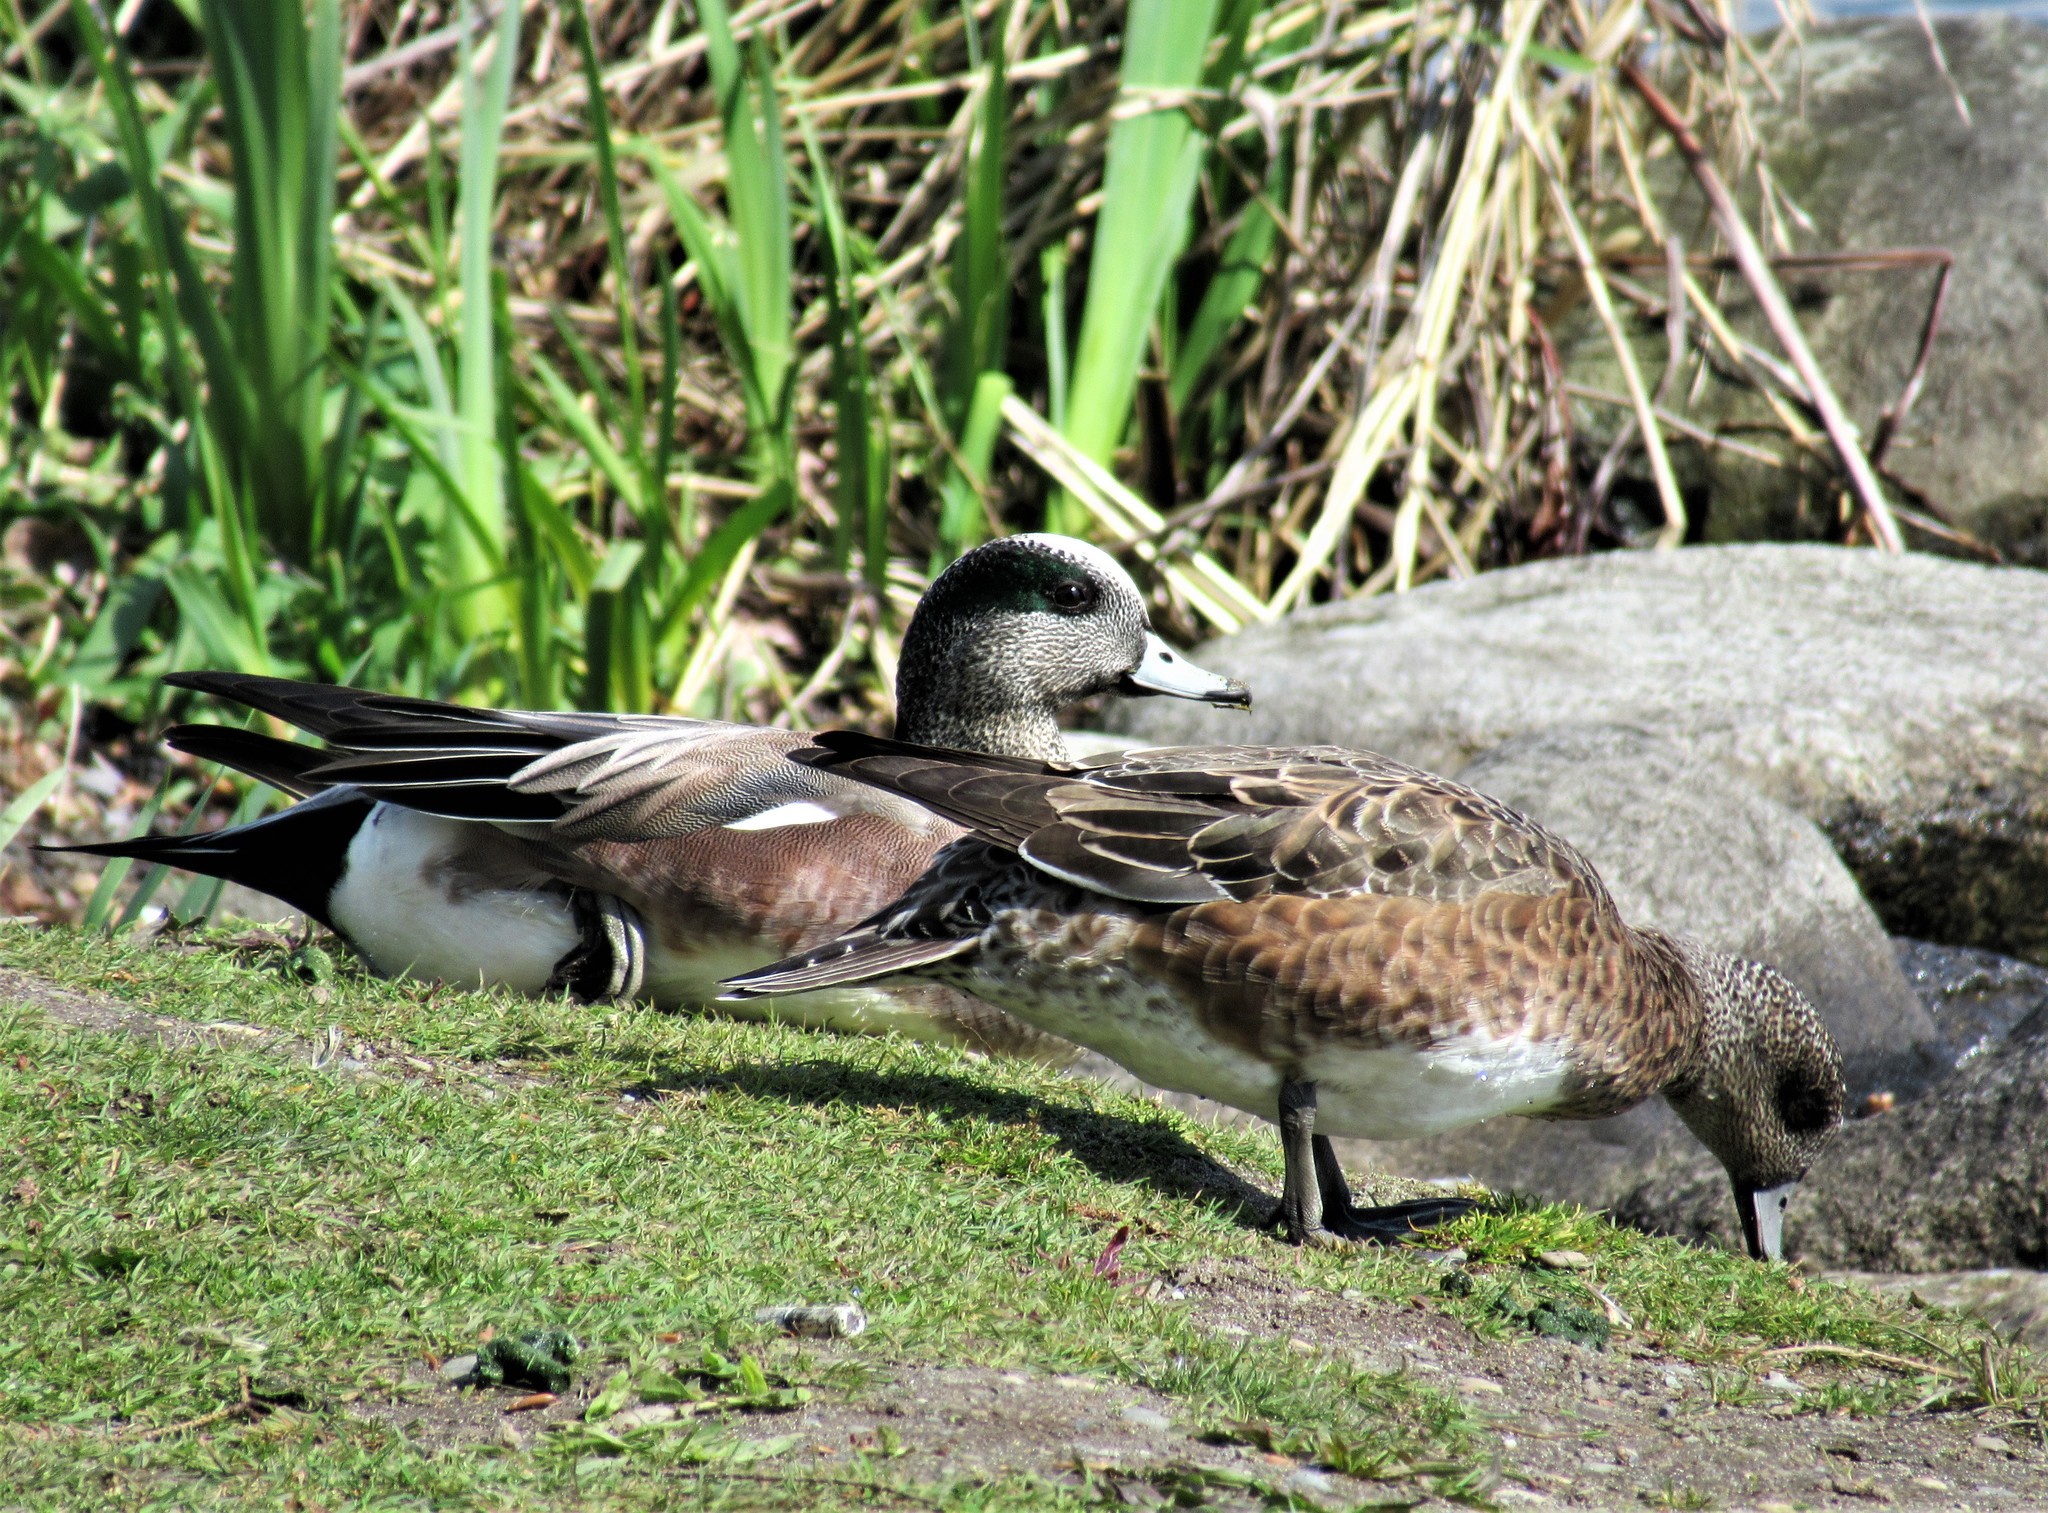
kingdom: Animalia
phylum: Chordata
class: Aves
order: Anseriformes
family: Anatidae
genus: Mareca
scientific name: Mareca americana
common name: American wigeon
